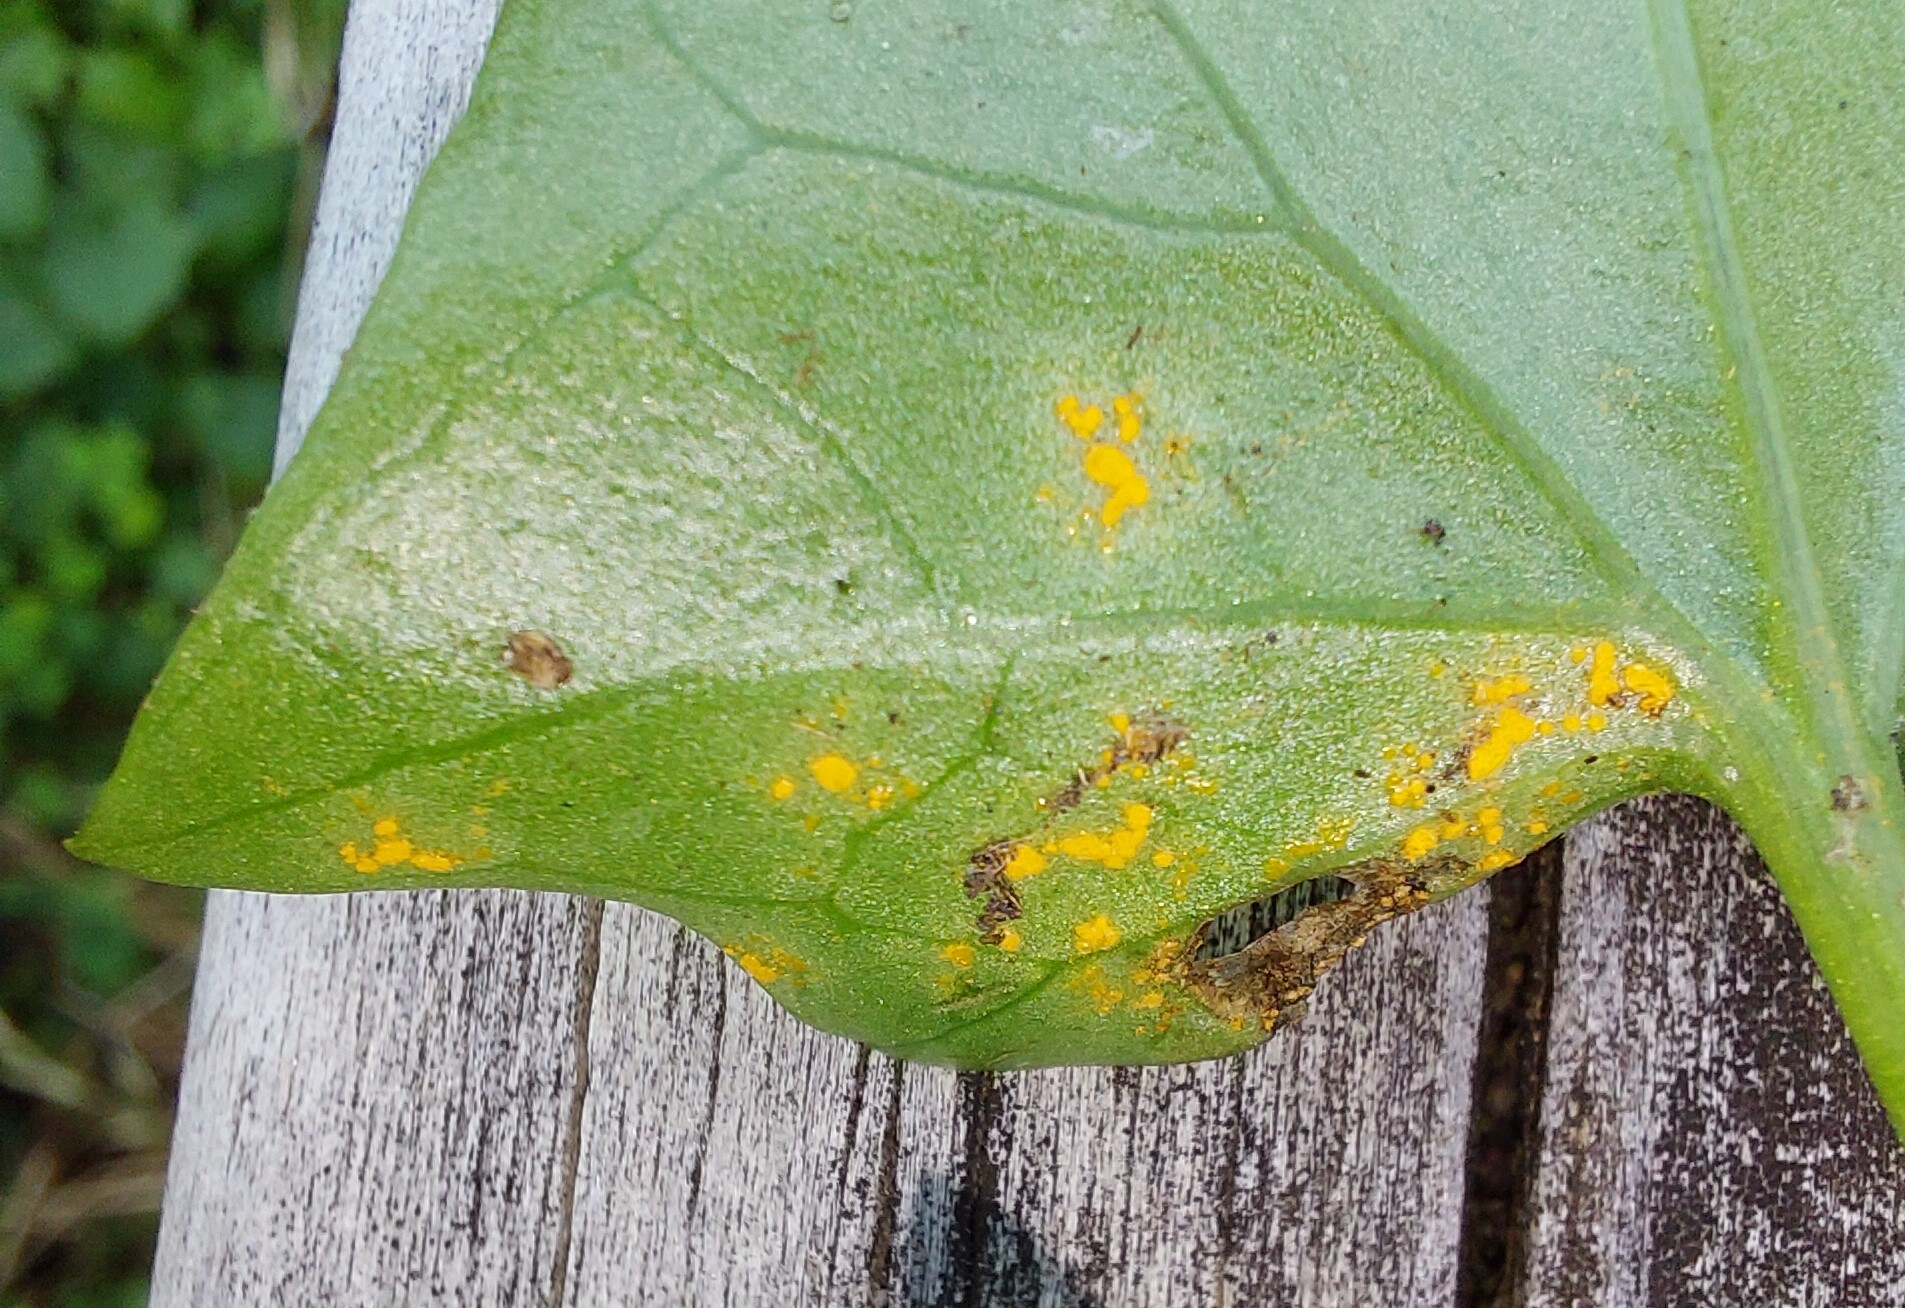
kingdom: Fungi
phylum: Basidiomycota
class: Pucciniomycetes
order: Pucciniales
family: Pucciniaceae
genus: Puccinia
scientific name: Puccinia otagensis
